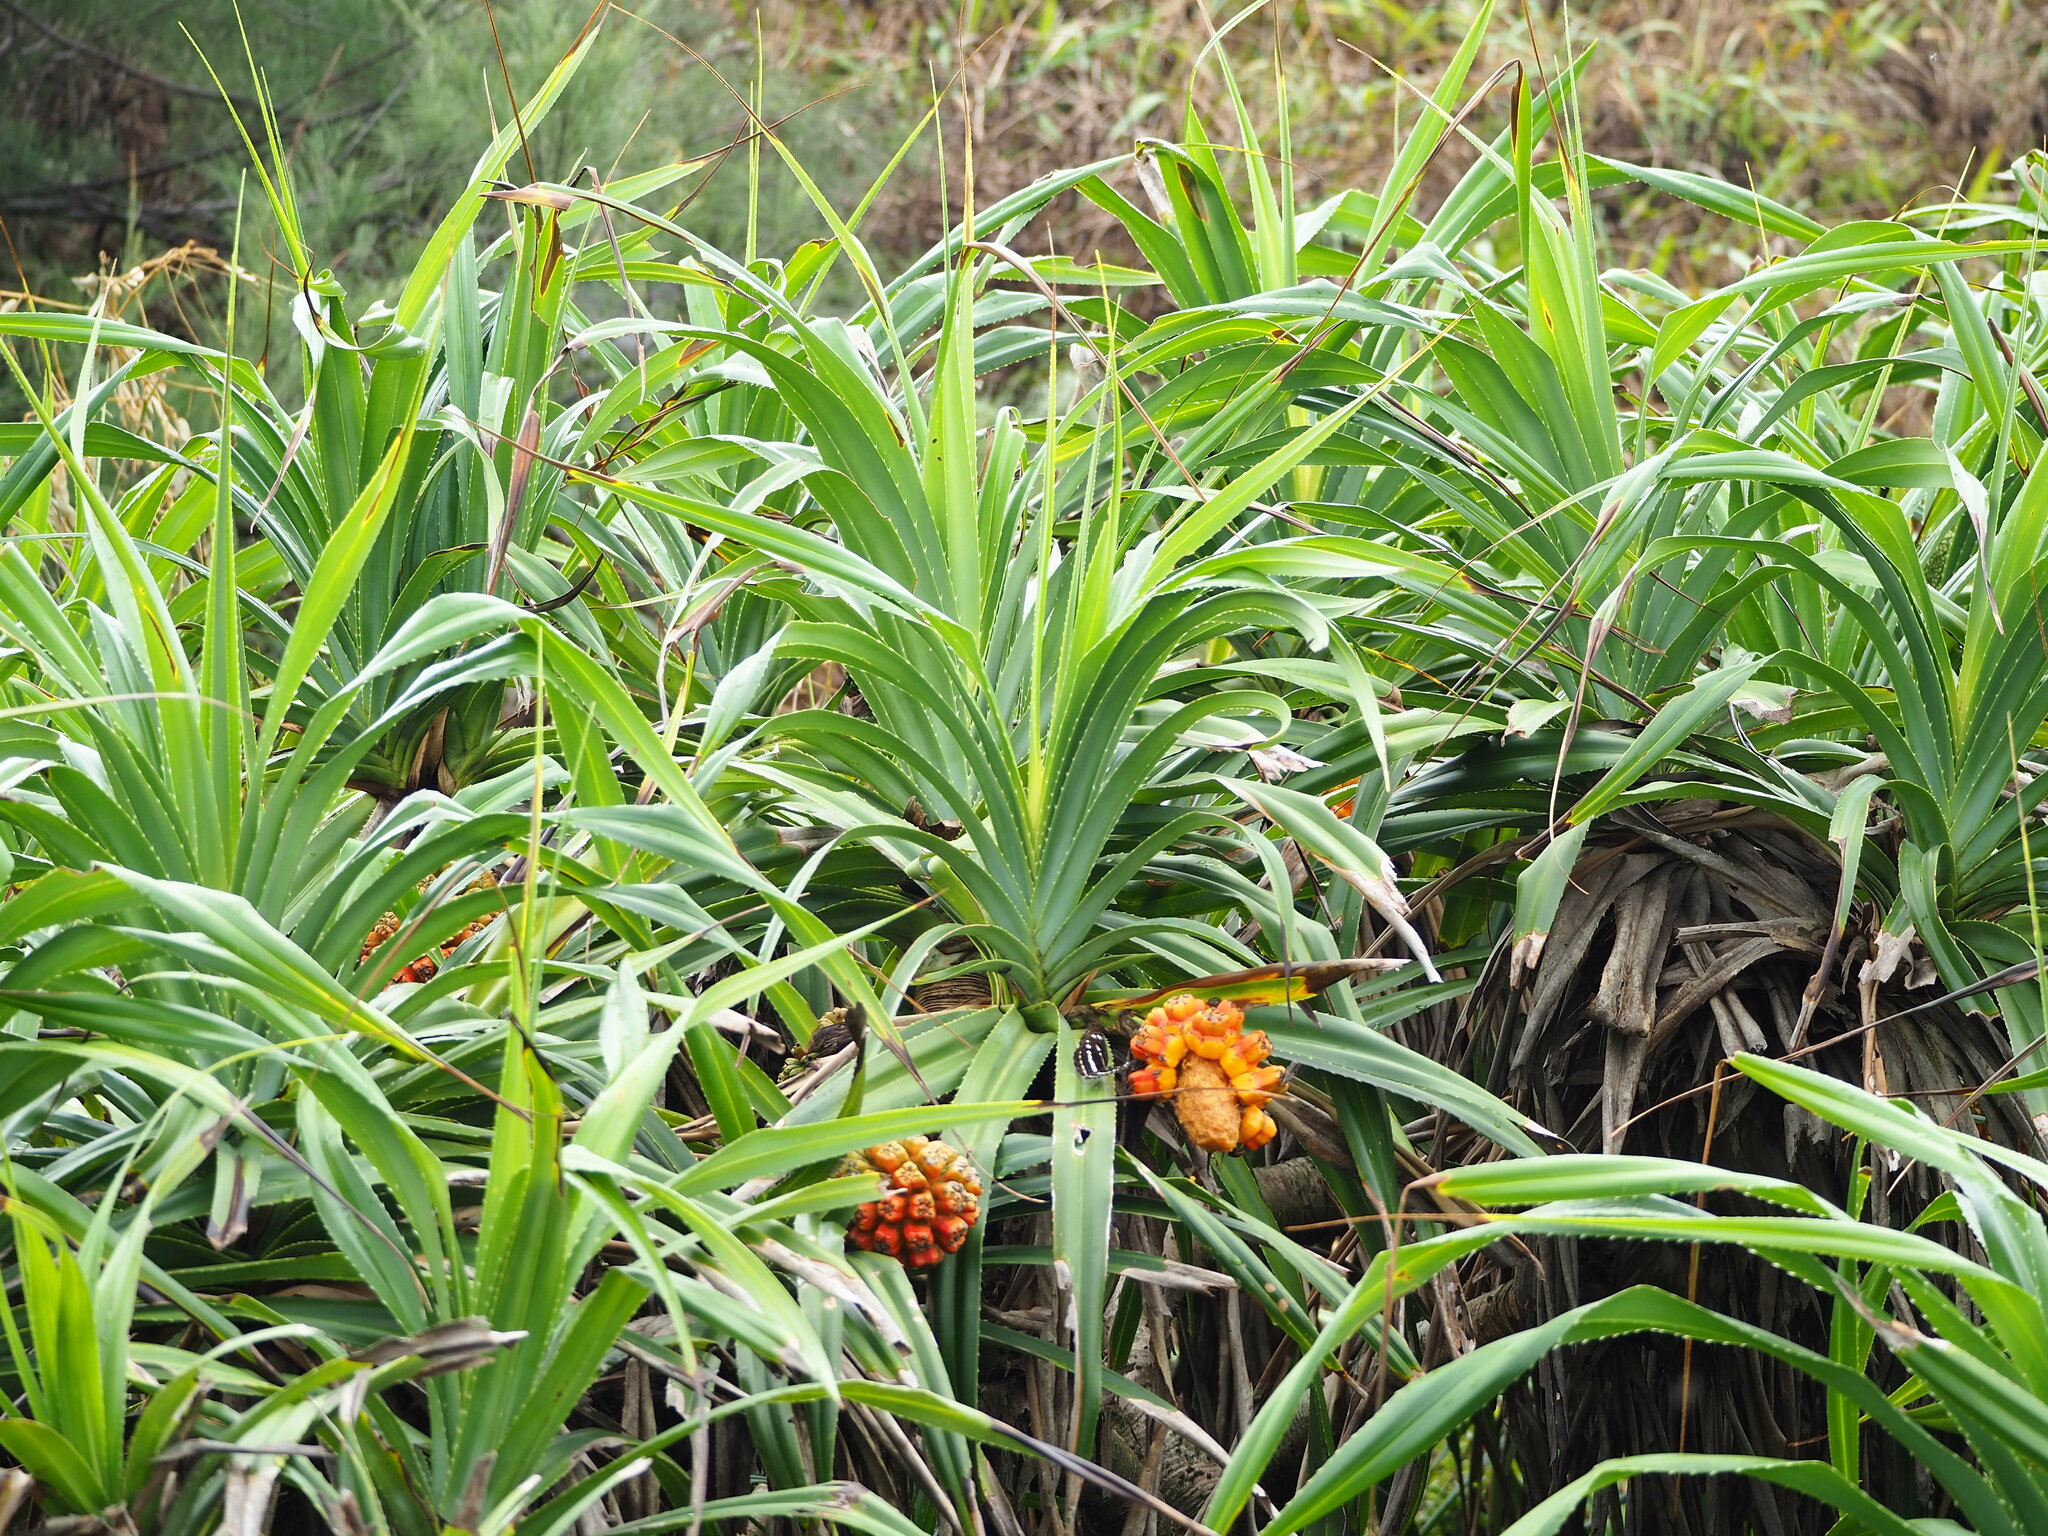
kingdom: Plantae
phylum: Tracheophyta
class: Liliopsida
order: Pandanales
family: Pandanaceae
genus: Pandanus
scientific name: Pandanus odorifer
